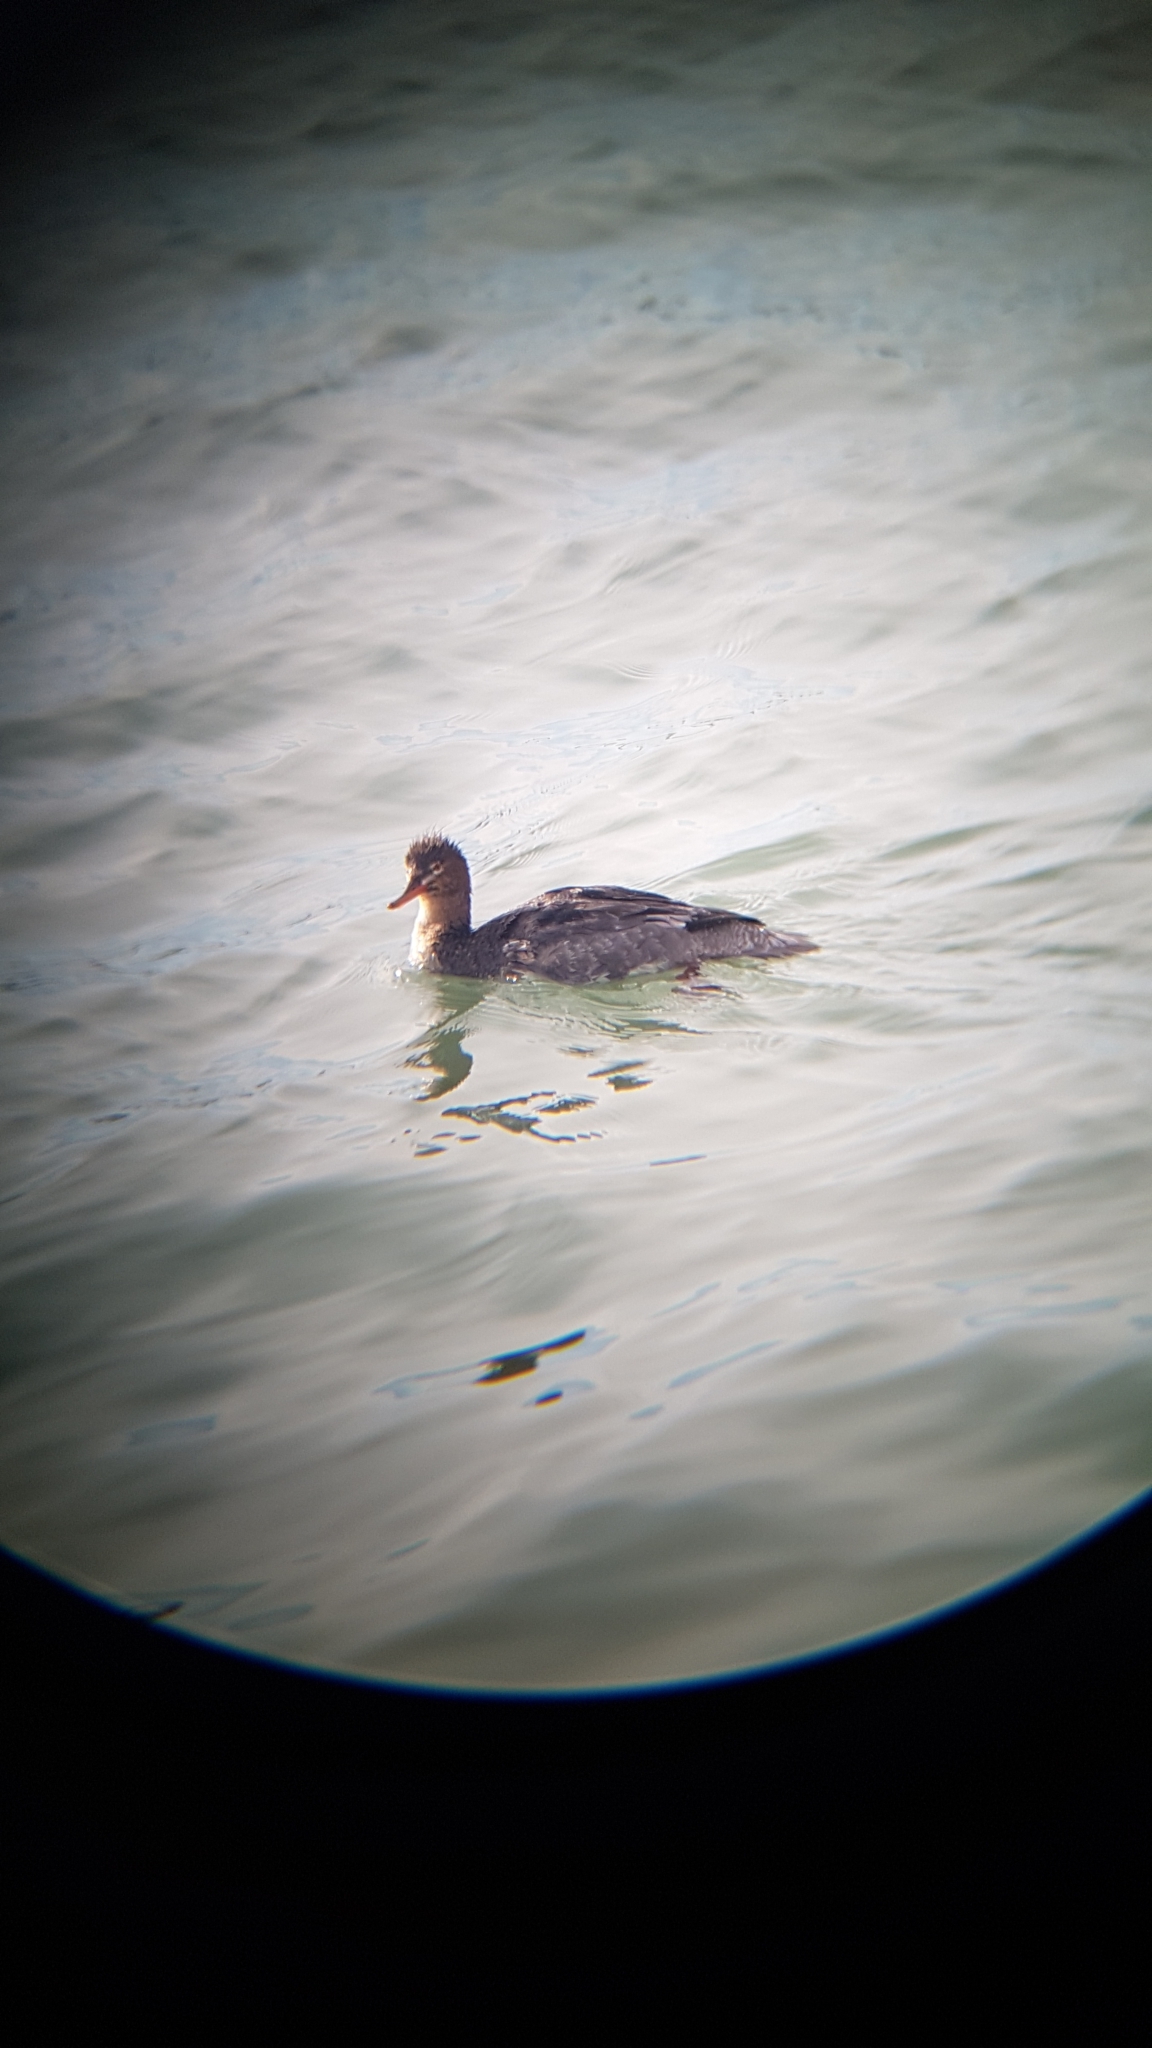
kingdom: Animalia
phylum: Chordata
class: Aves
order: Anseriformes
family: Anatidae
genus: Mergus
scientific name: Mergus serrator
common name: Red-breasted merganser
